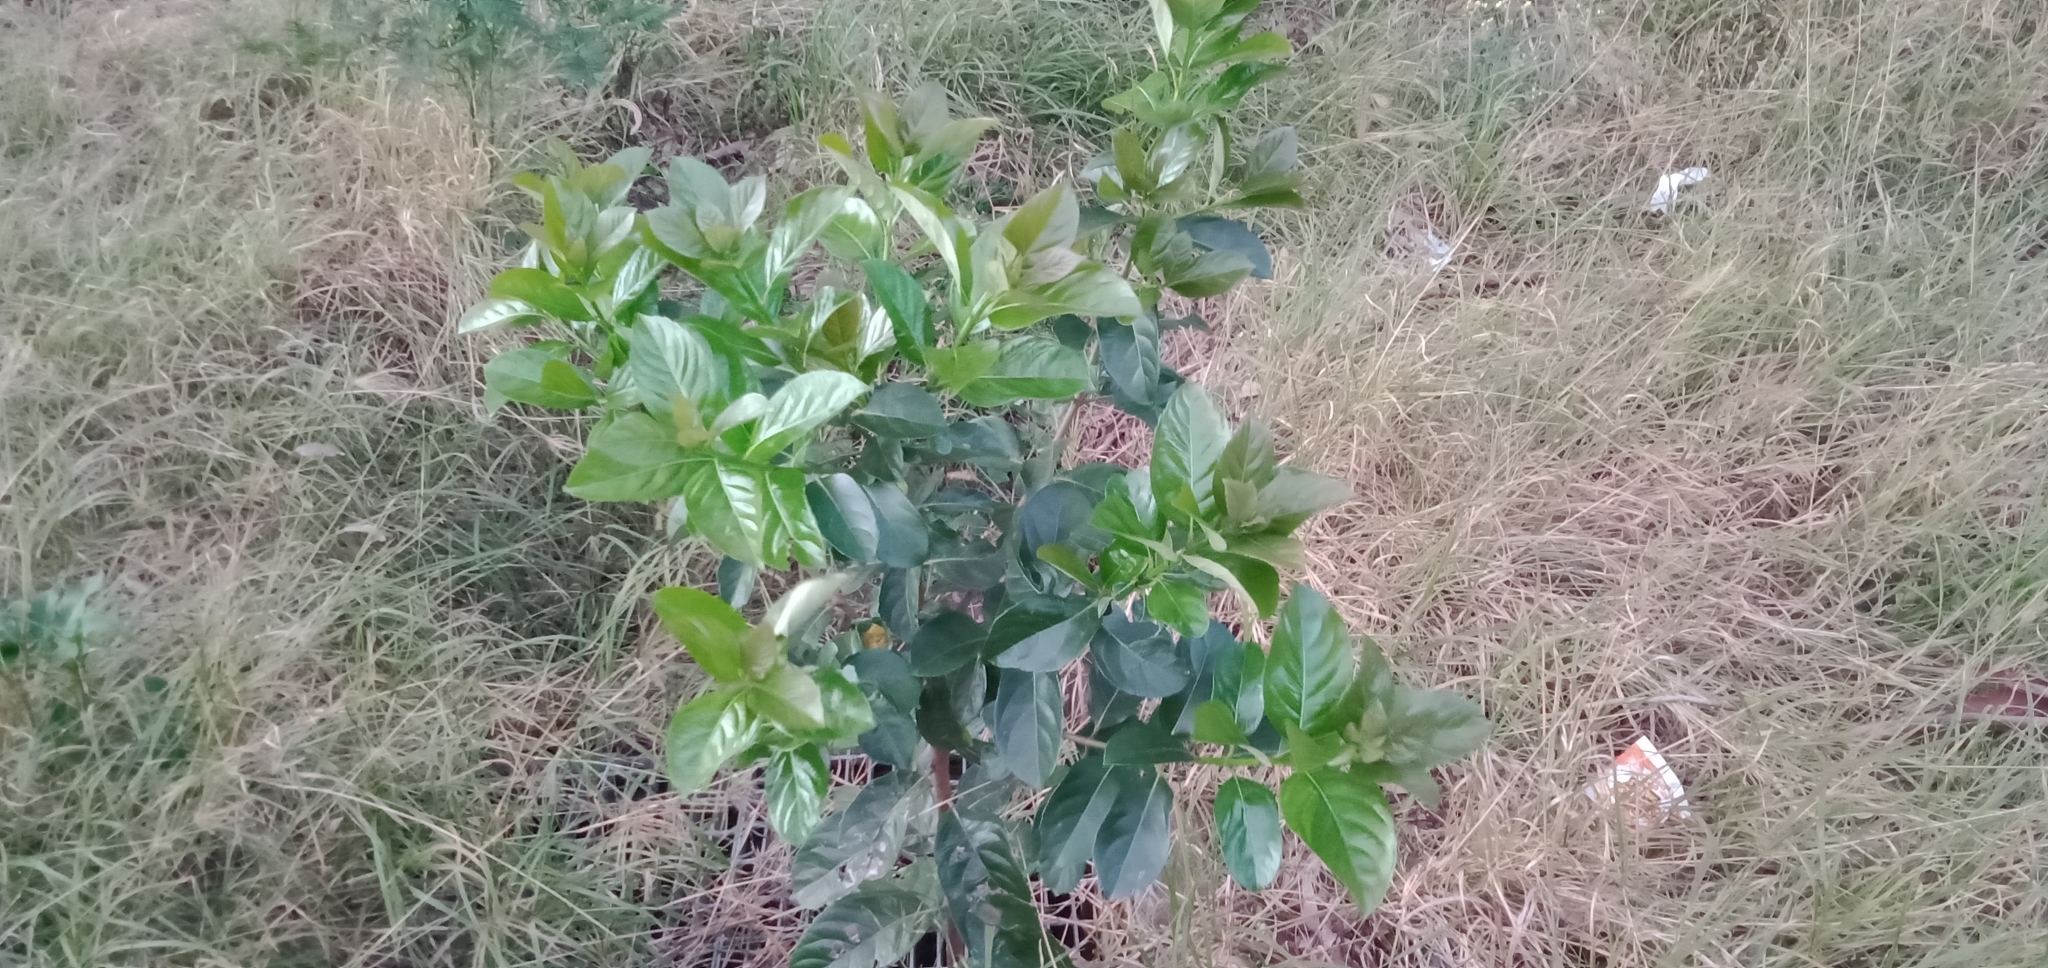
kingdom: Plantae
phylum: Tracheophyta
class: Magnoliopsida
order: Dipsacales
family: Viburnaceae
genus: Viburnum
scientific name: Viburnum odoratissimum
